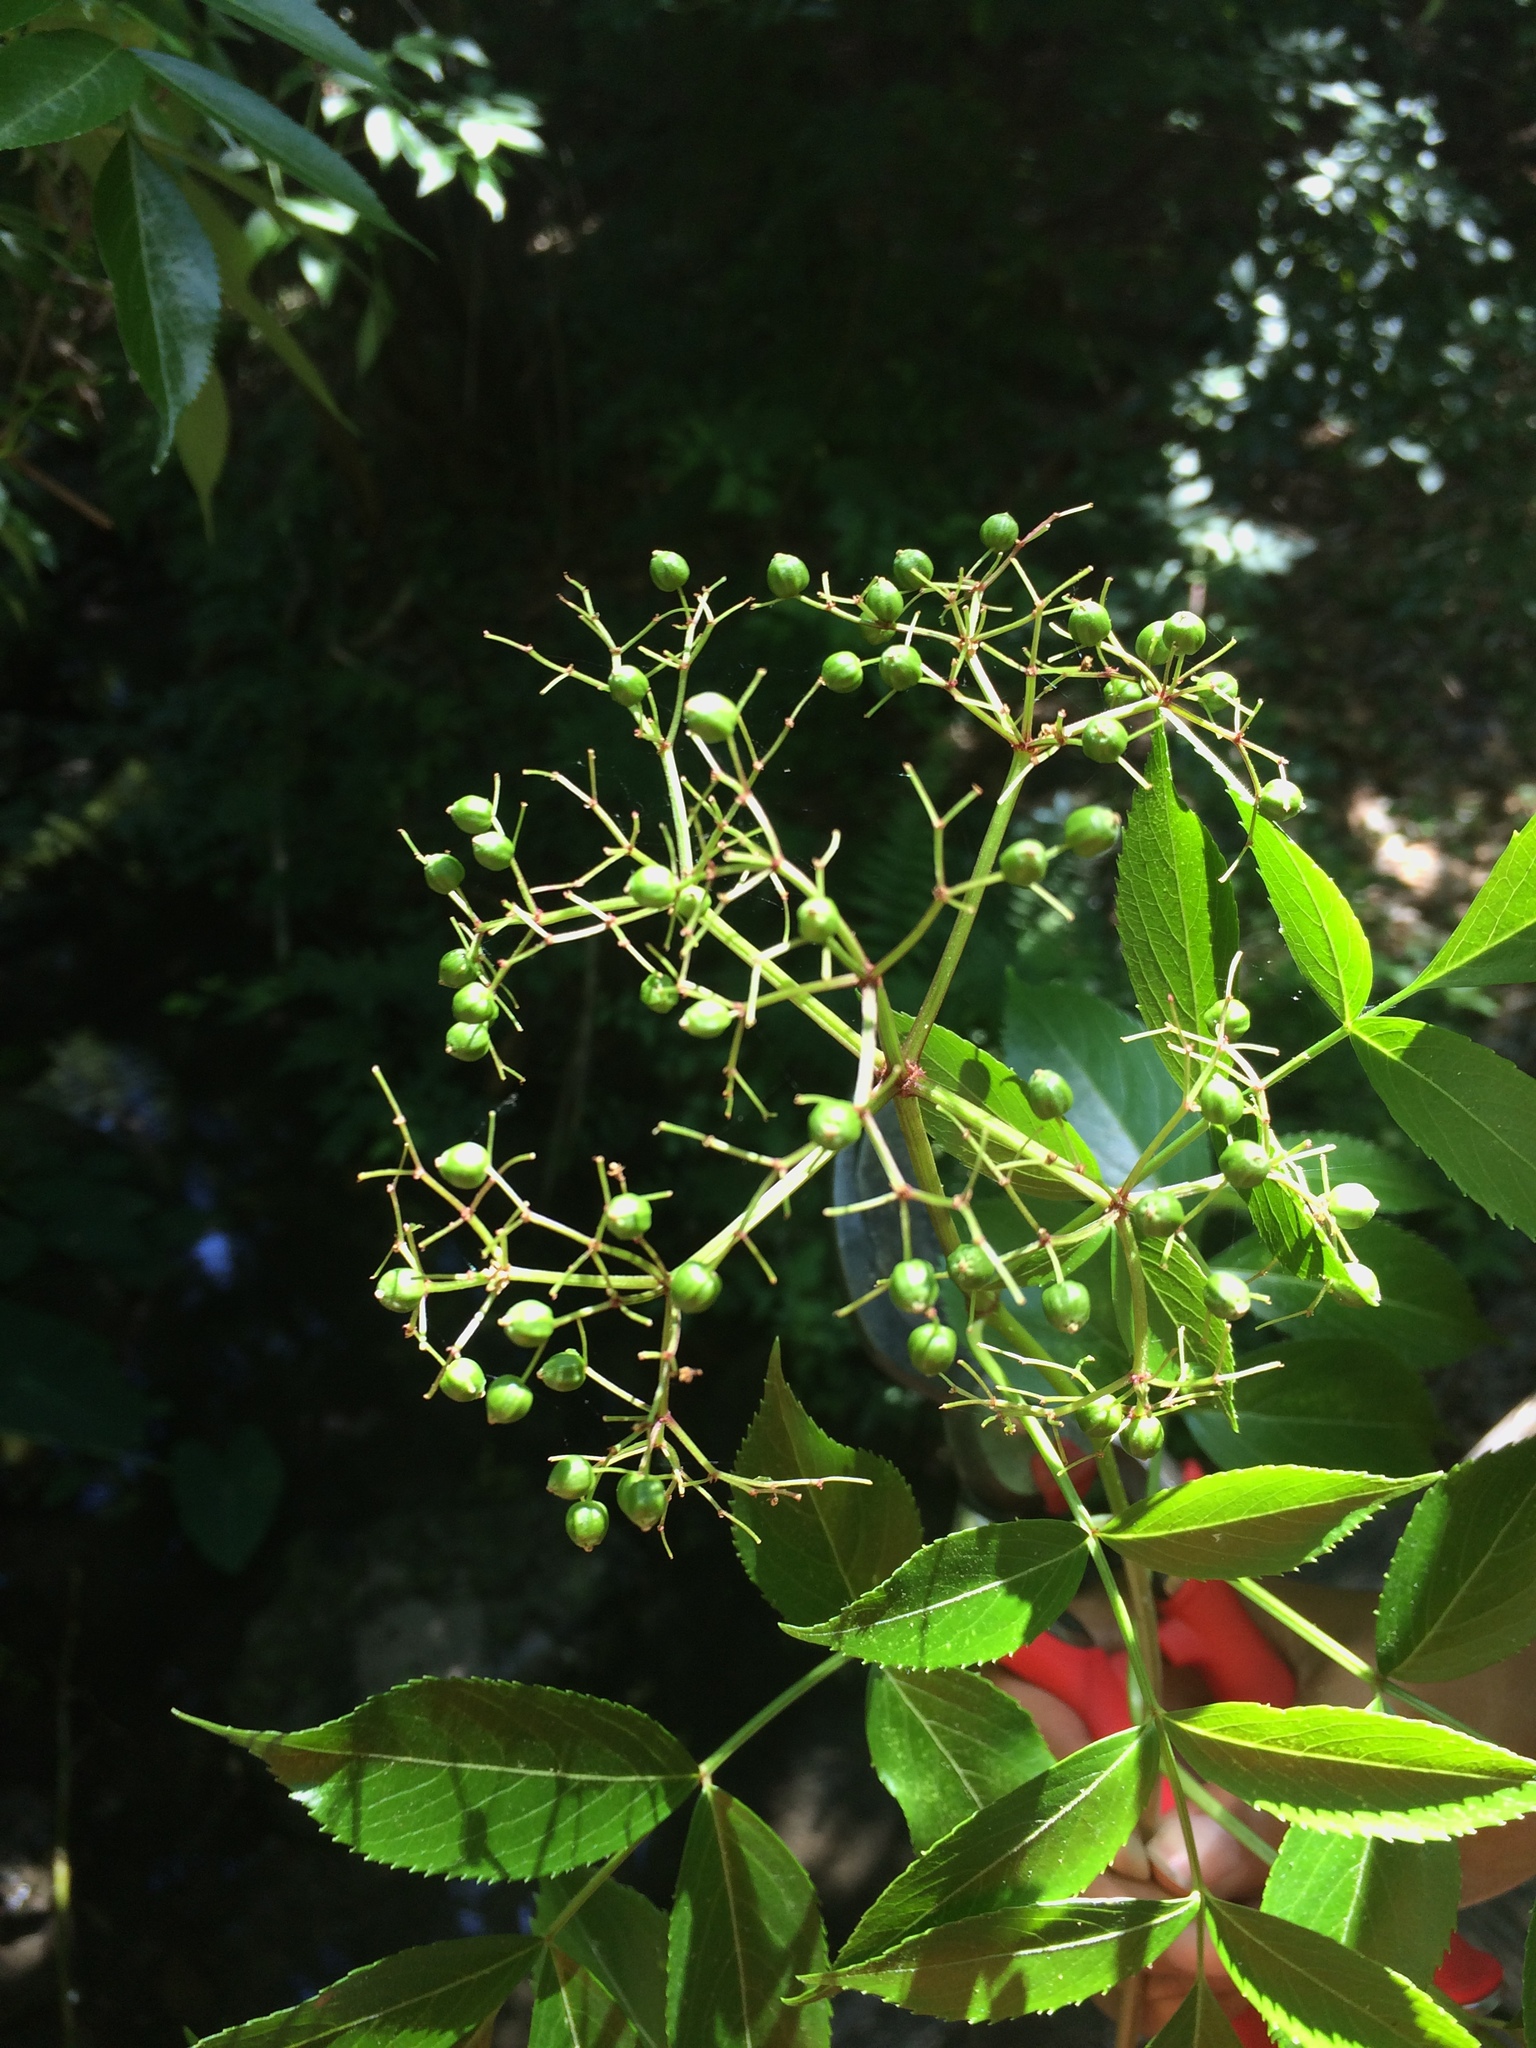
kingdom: Plantae
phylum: Tracheophyta
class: Magnoliopsida
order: Dipsacales
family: Viburnaceae
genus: Sambucus
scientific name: Sambucus canadensis
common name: American elder
